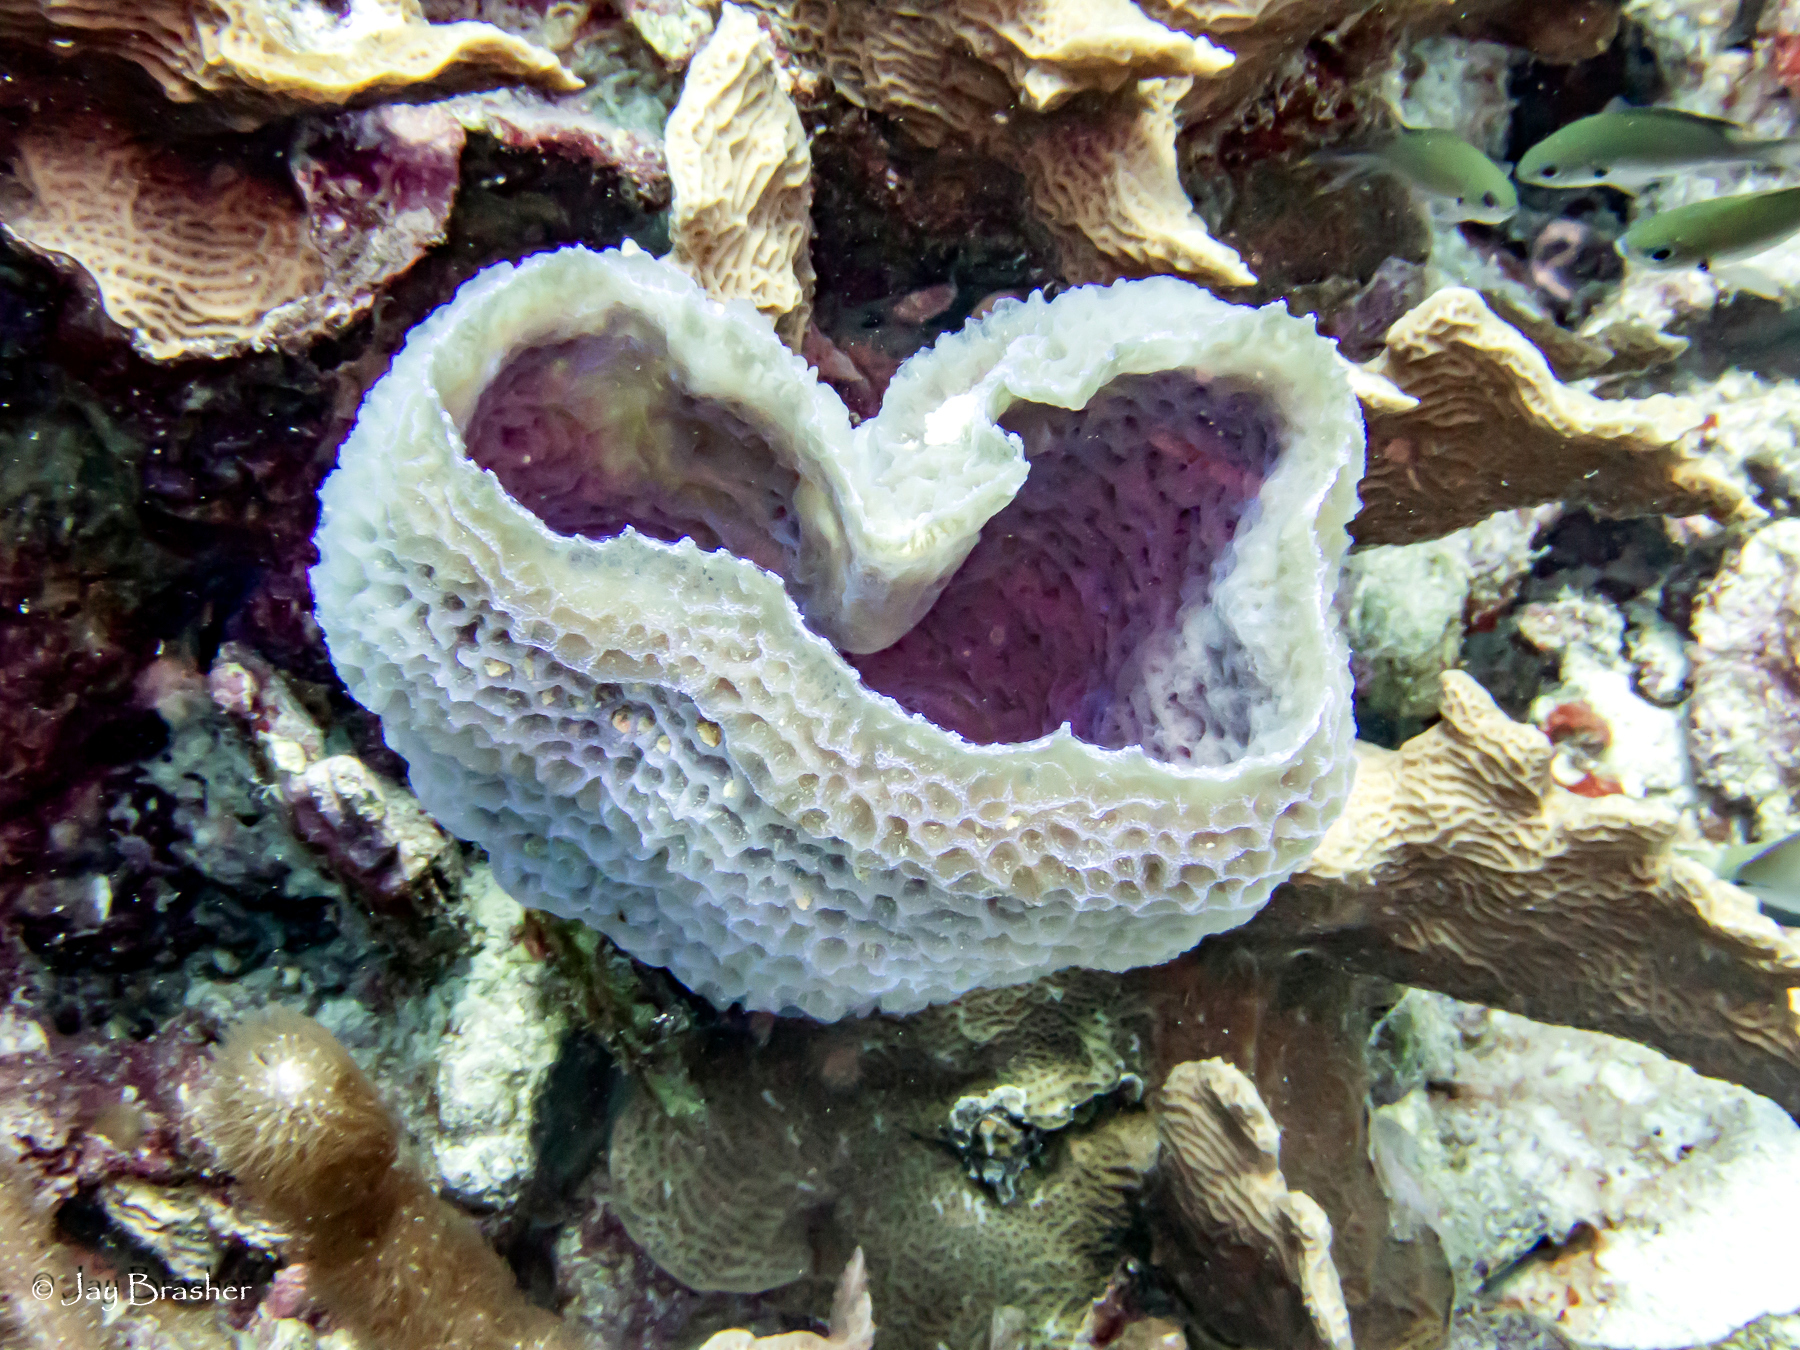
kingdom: Animalia
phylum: Porifera
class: Demospongiae
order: Haplosclerida
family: Callyspongiidae
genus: Callyspongia
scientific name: Callyspongia plicifera
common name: Azure vase sponge
